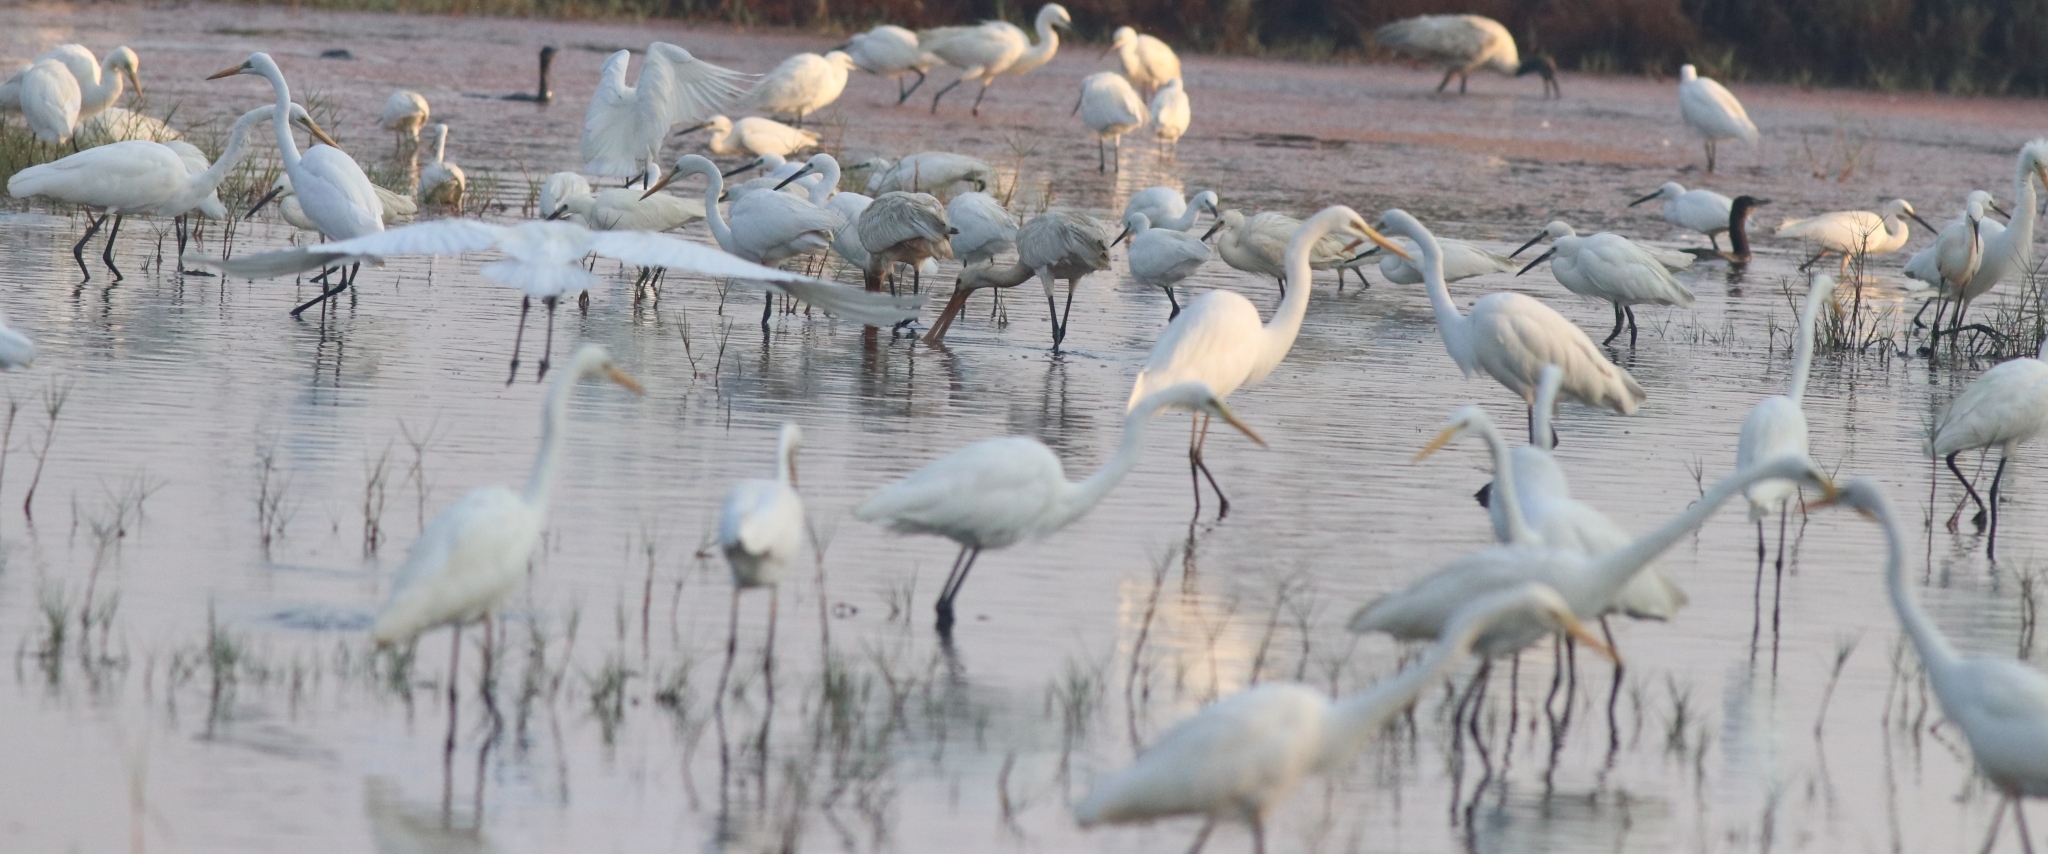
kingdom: Animalia
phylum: Chordata
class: Aves
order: Pelecaniformes
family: Ardeidae
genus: Ardea
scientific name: Ardea alba
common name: Great egret
